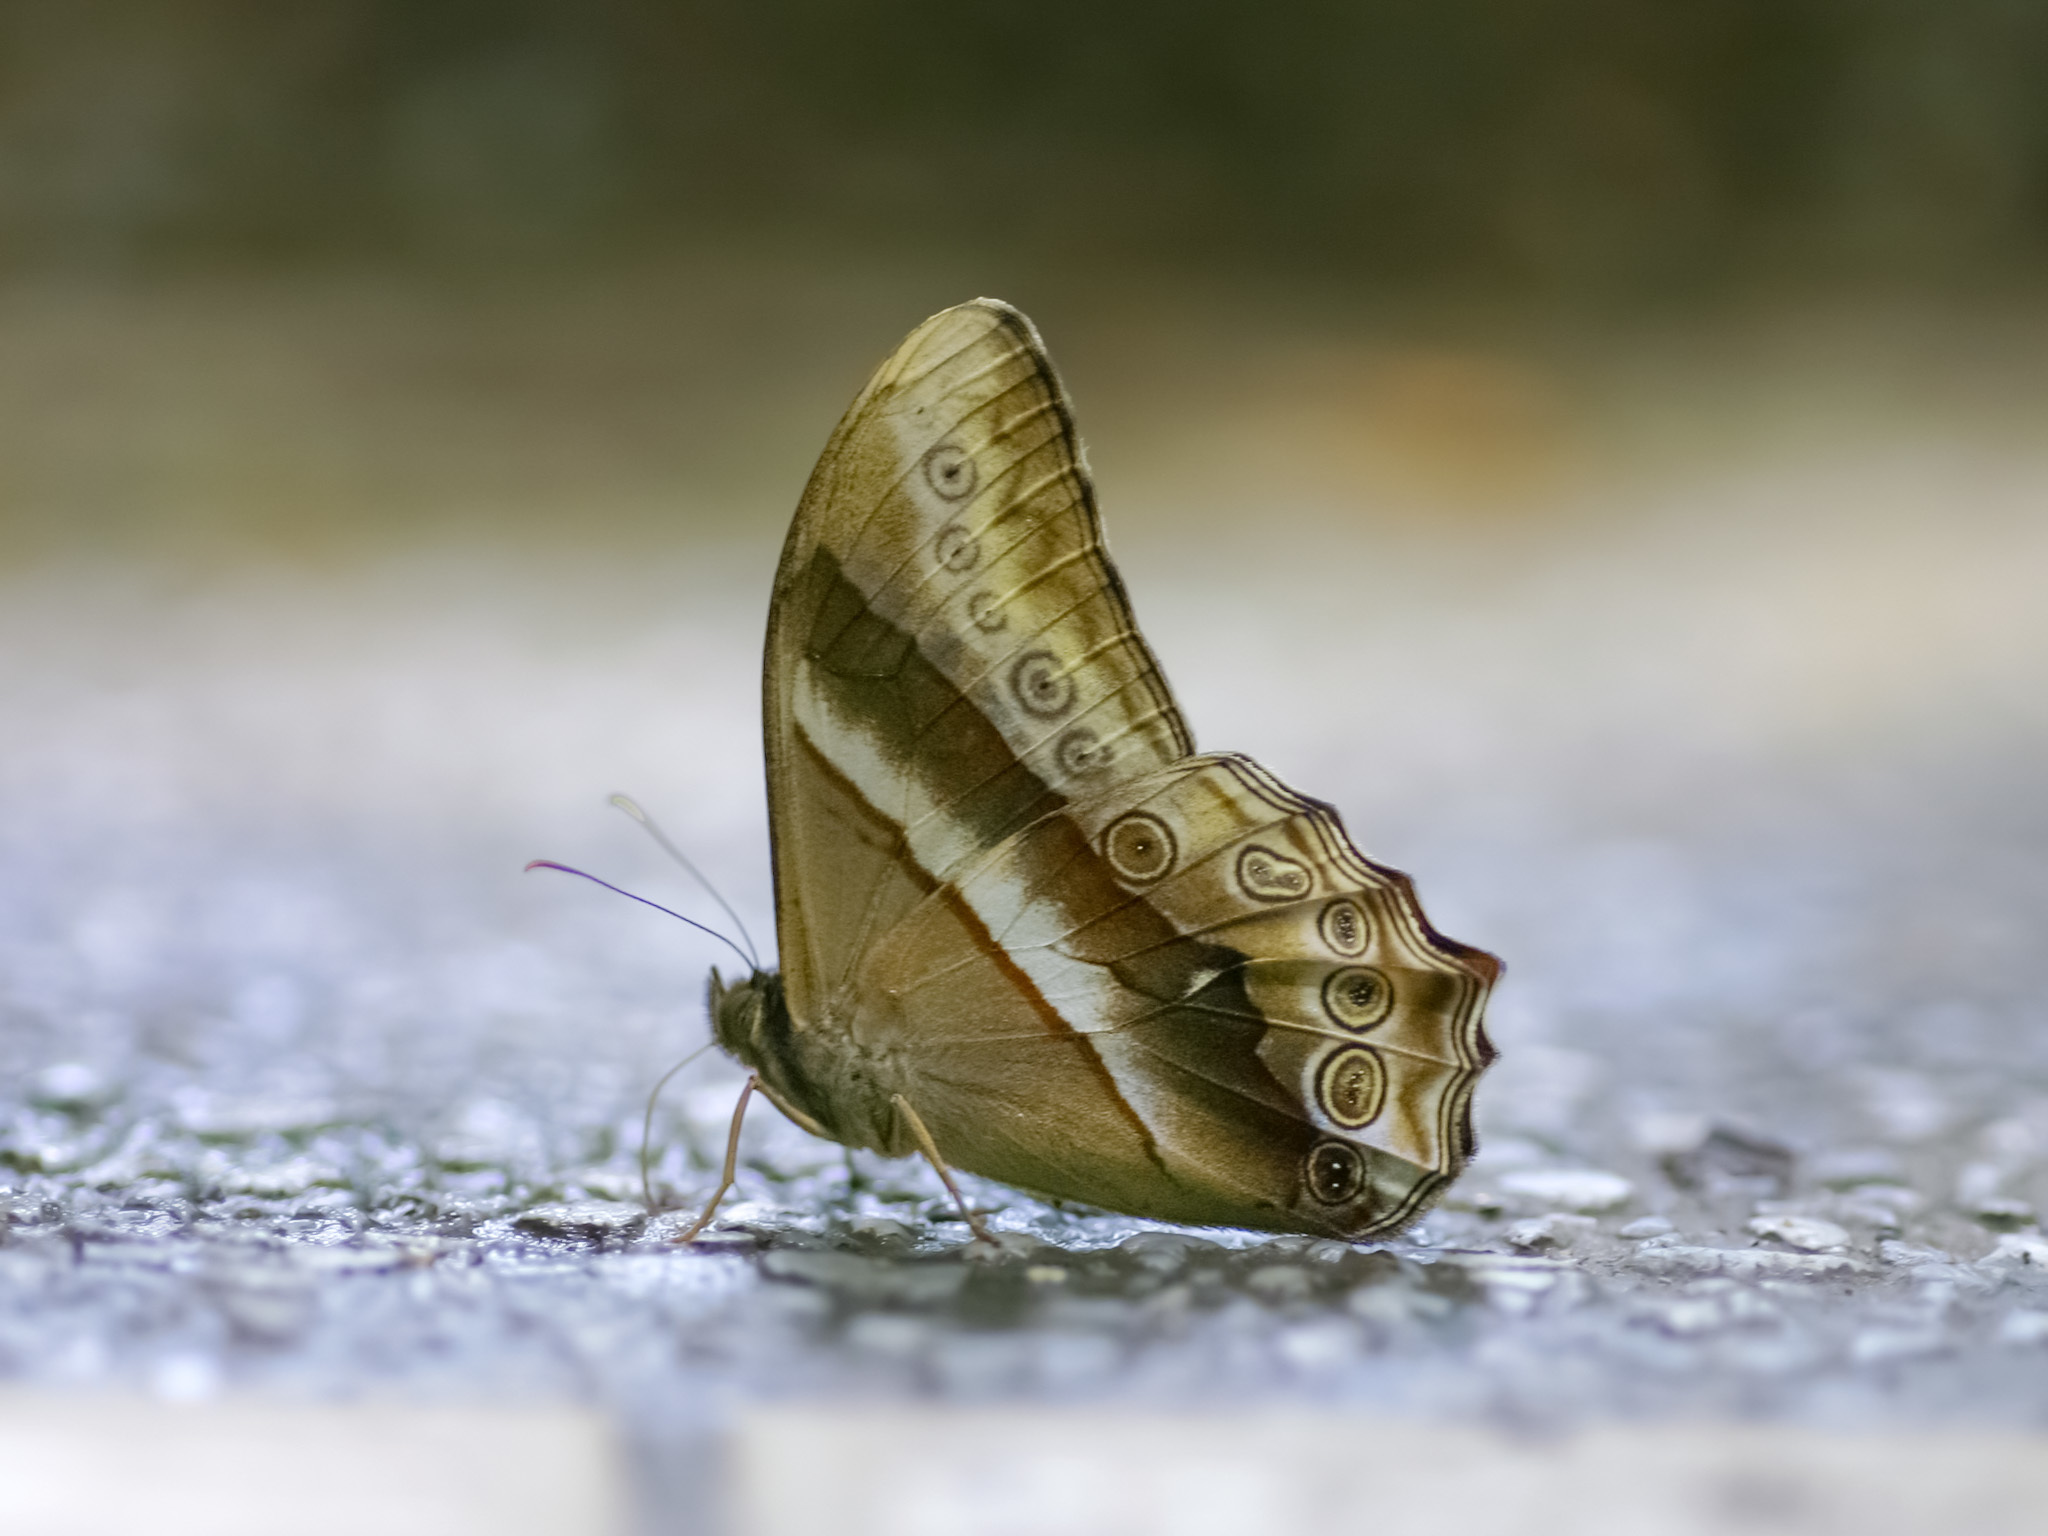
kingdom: Animalia
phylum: Arthropoda
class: Insecta
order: Lepidoptera
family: Nymphalidae
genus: Lethe
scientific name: Lethe mekara
